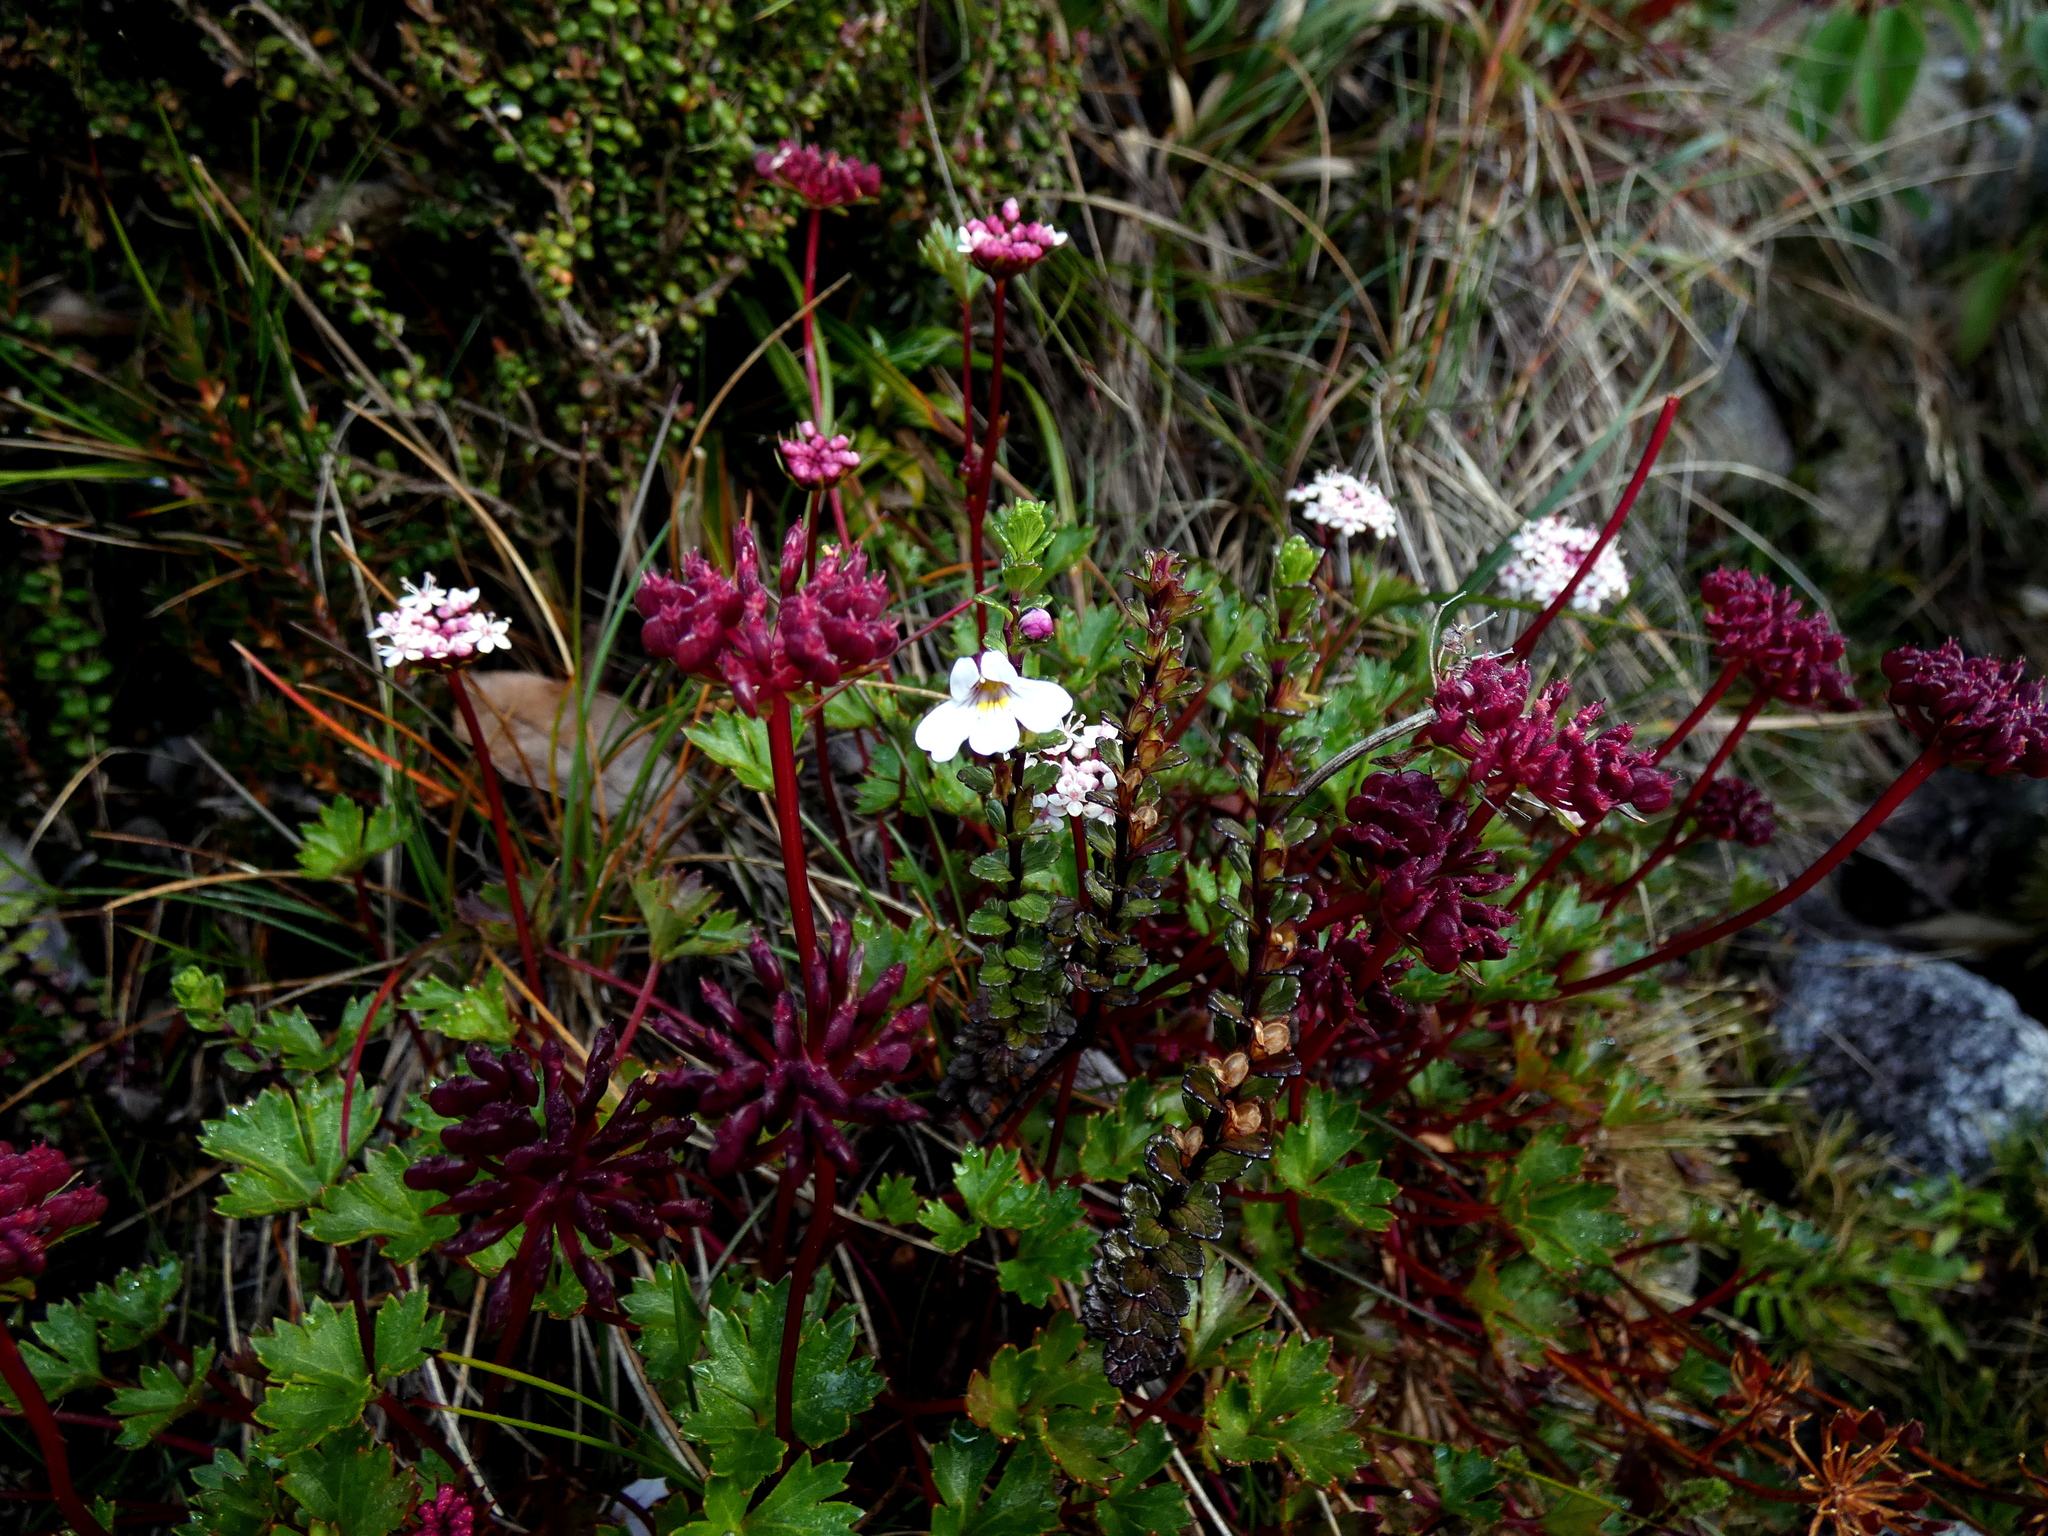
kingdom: Plantae
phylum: Tracheophyta
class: Magnoliopsida
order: Apiales
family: Araliaceae
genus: Trachymene
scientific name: Trachymene saniculifolia
